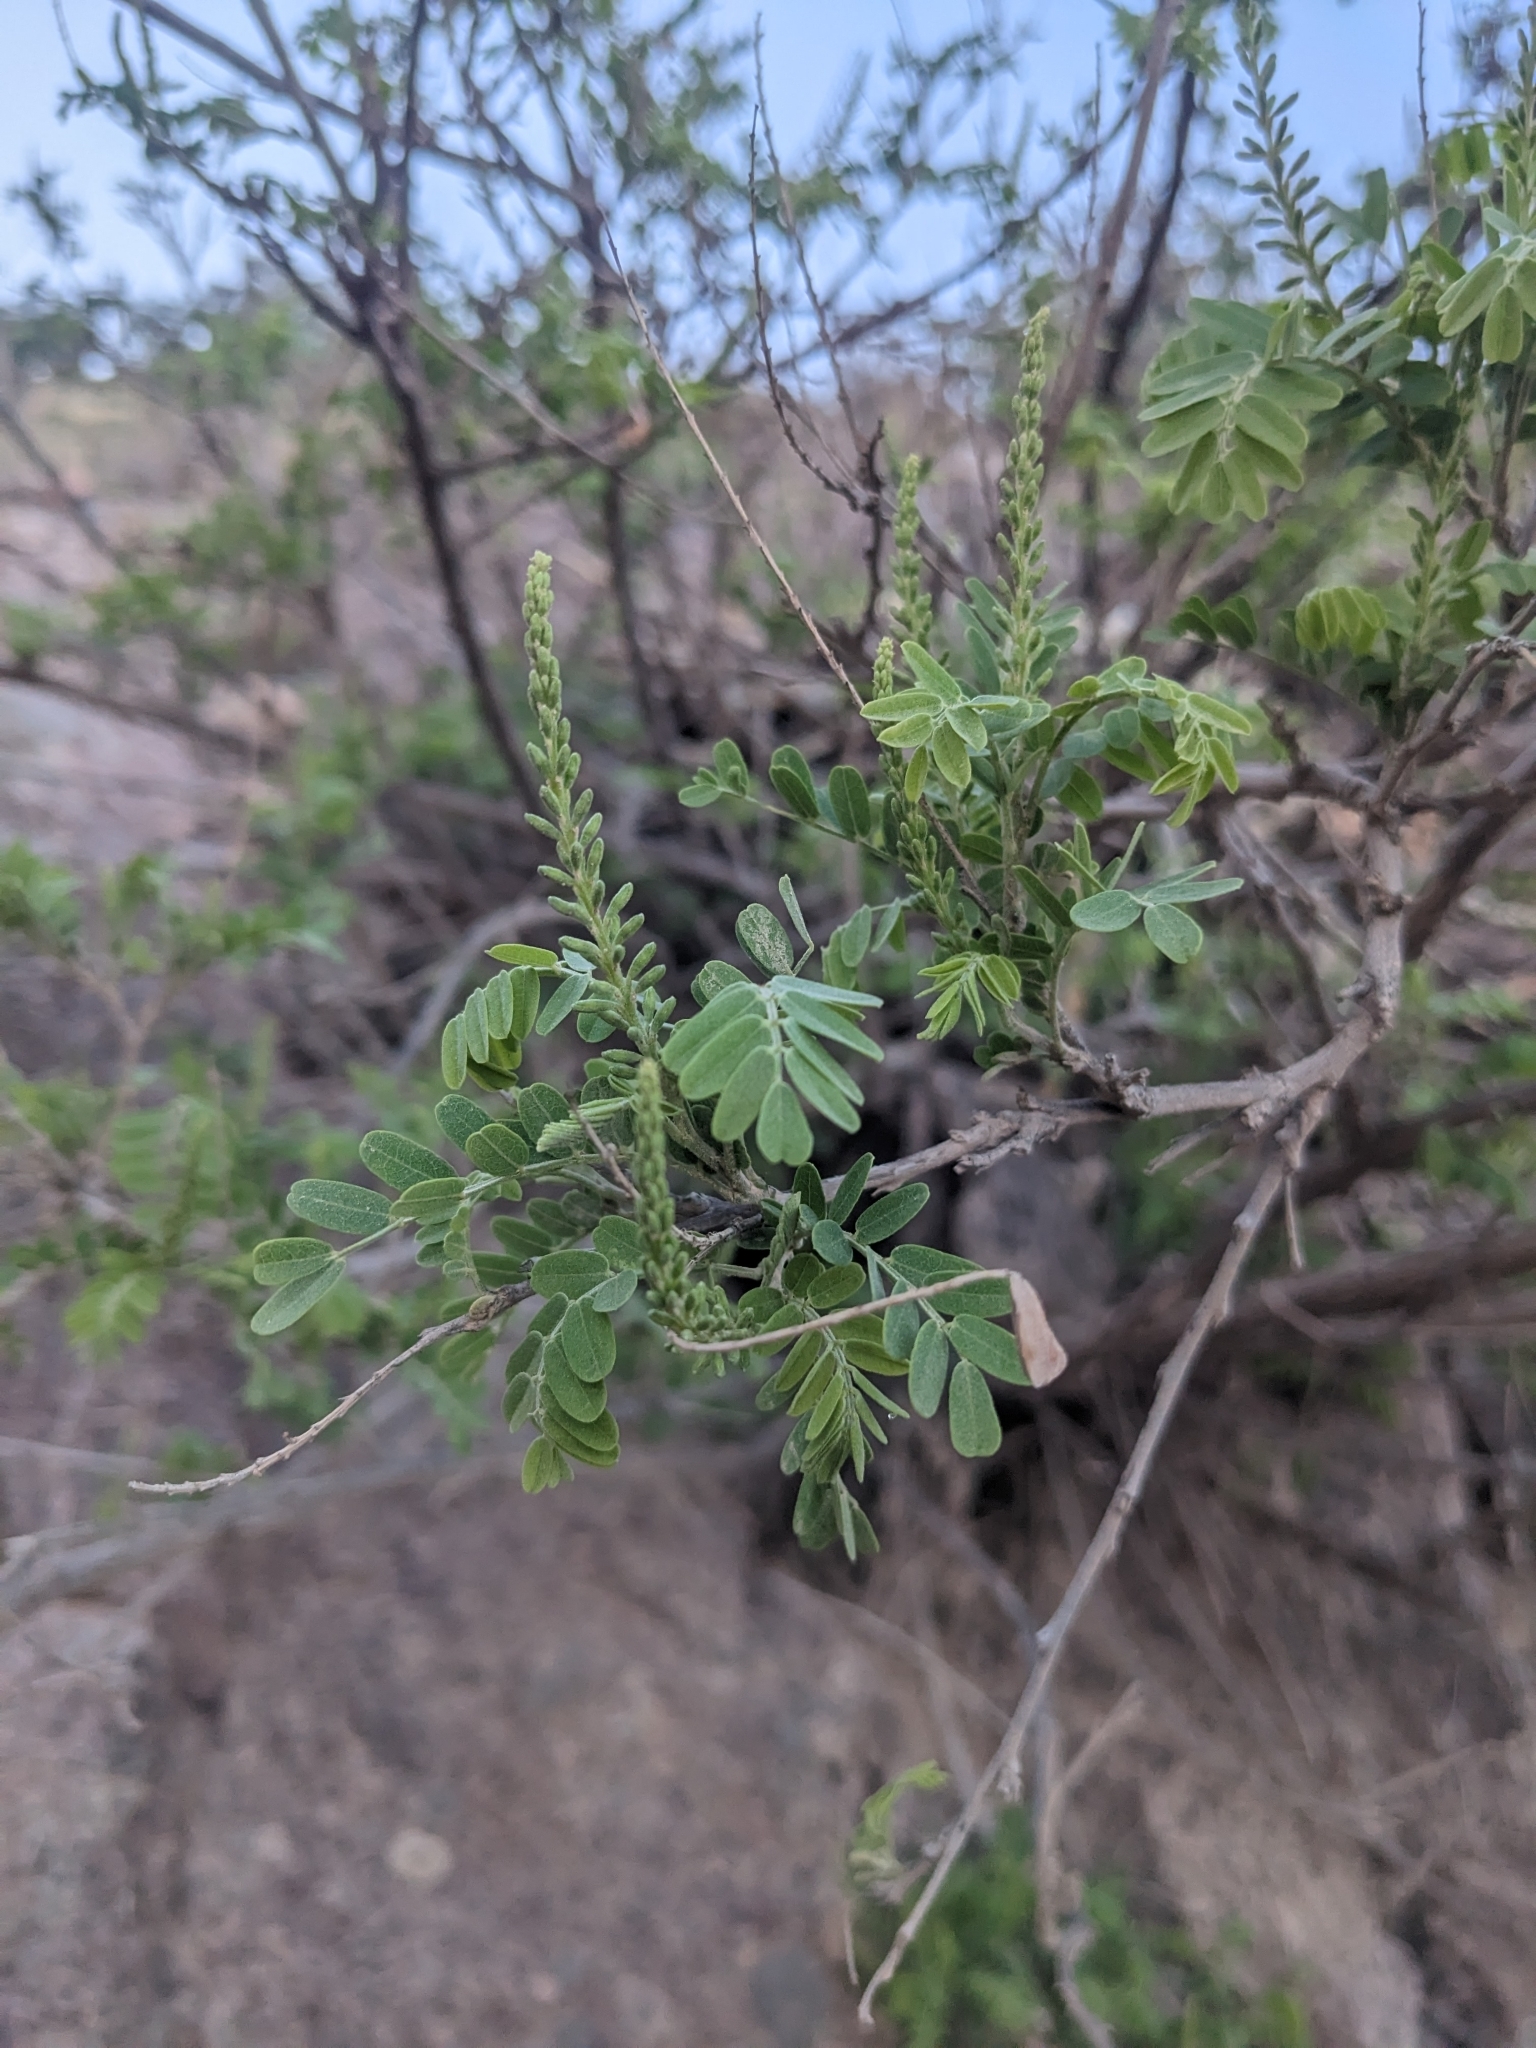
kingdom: Plantae
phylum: Tracheophyta
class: Magnoliopsida
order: Fabales
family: Fabaceae
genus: Eysenhardtia
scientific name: Eysenhardtia orthocarpa
